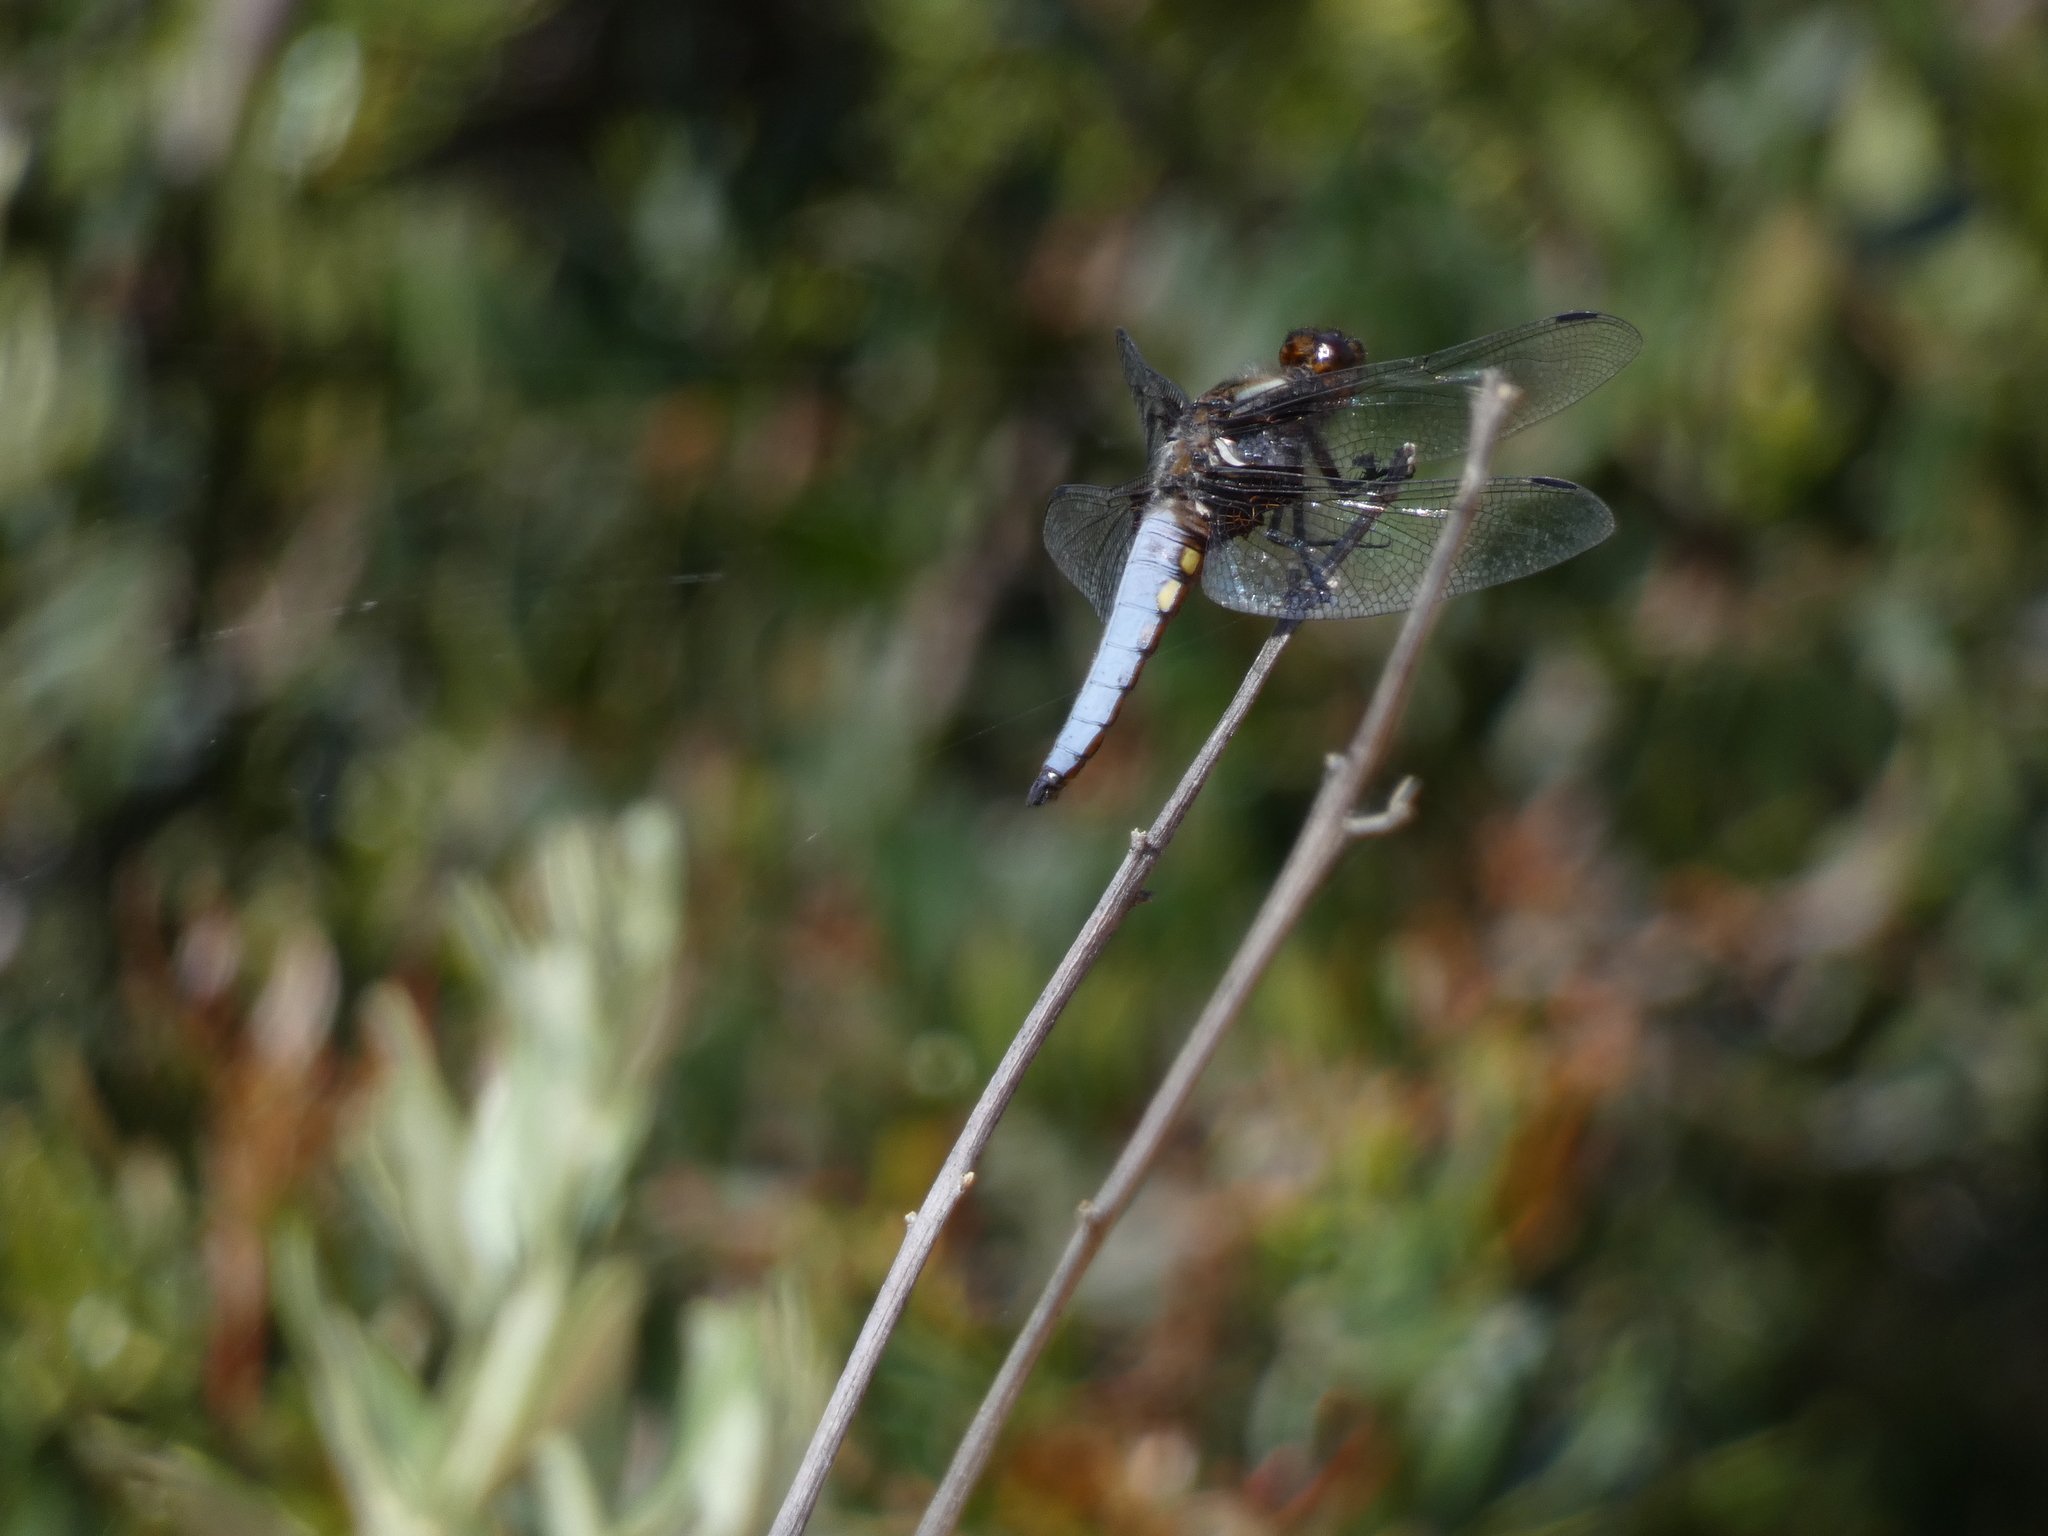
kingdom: Animalia
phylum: Arthropoda
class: Insecta
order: Odonata
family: Libellulidae
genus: Libellula
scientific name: Libellula depressa
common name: Broad-bodied chaser
